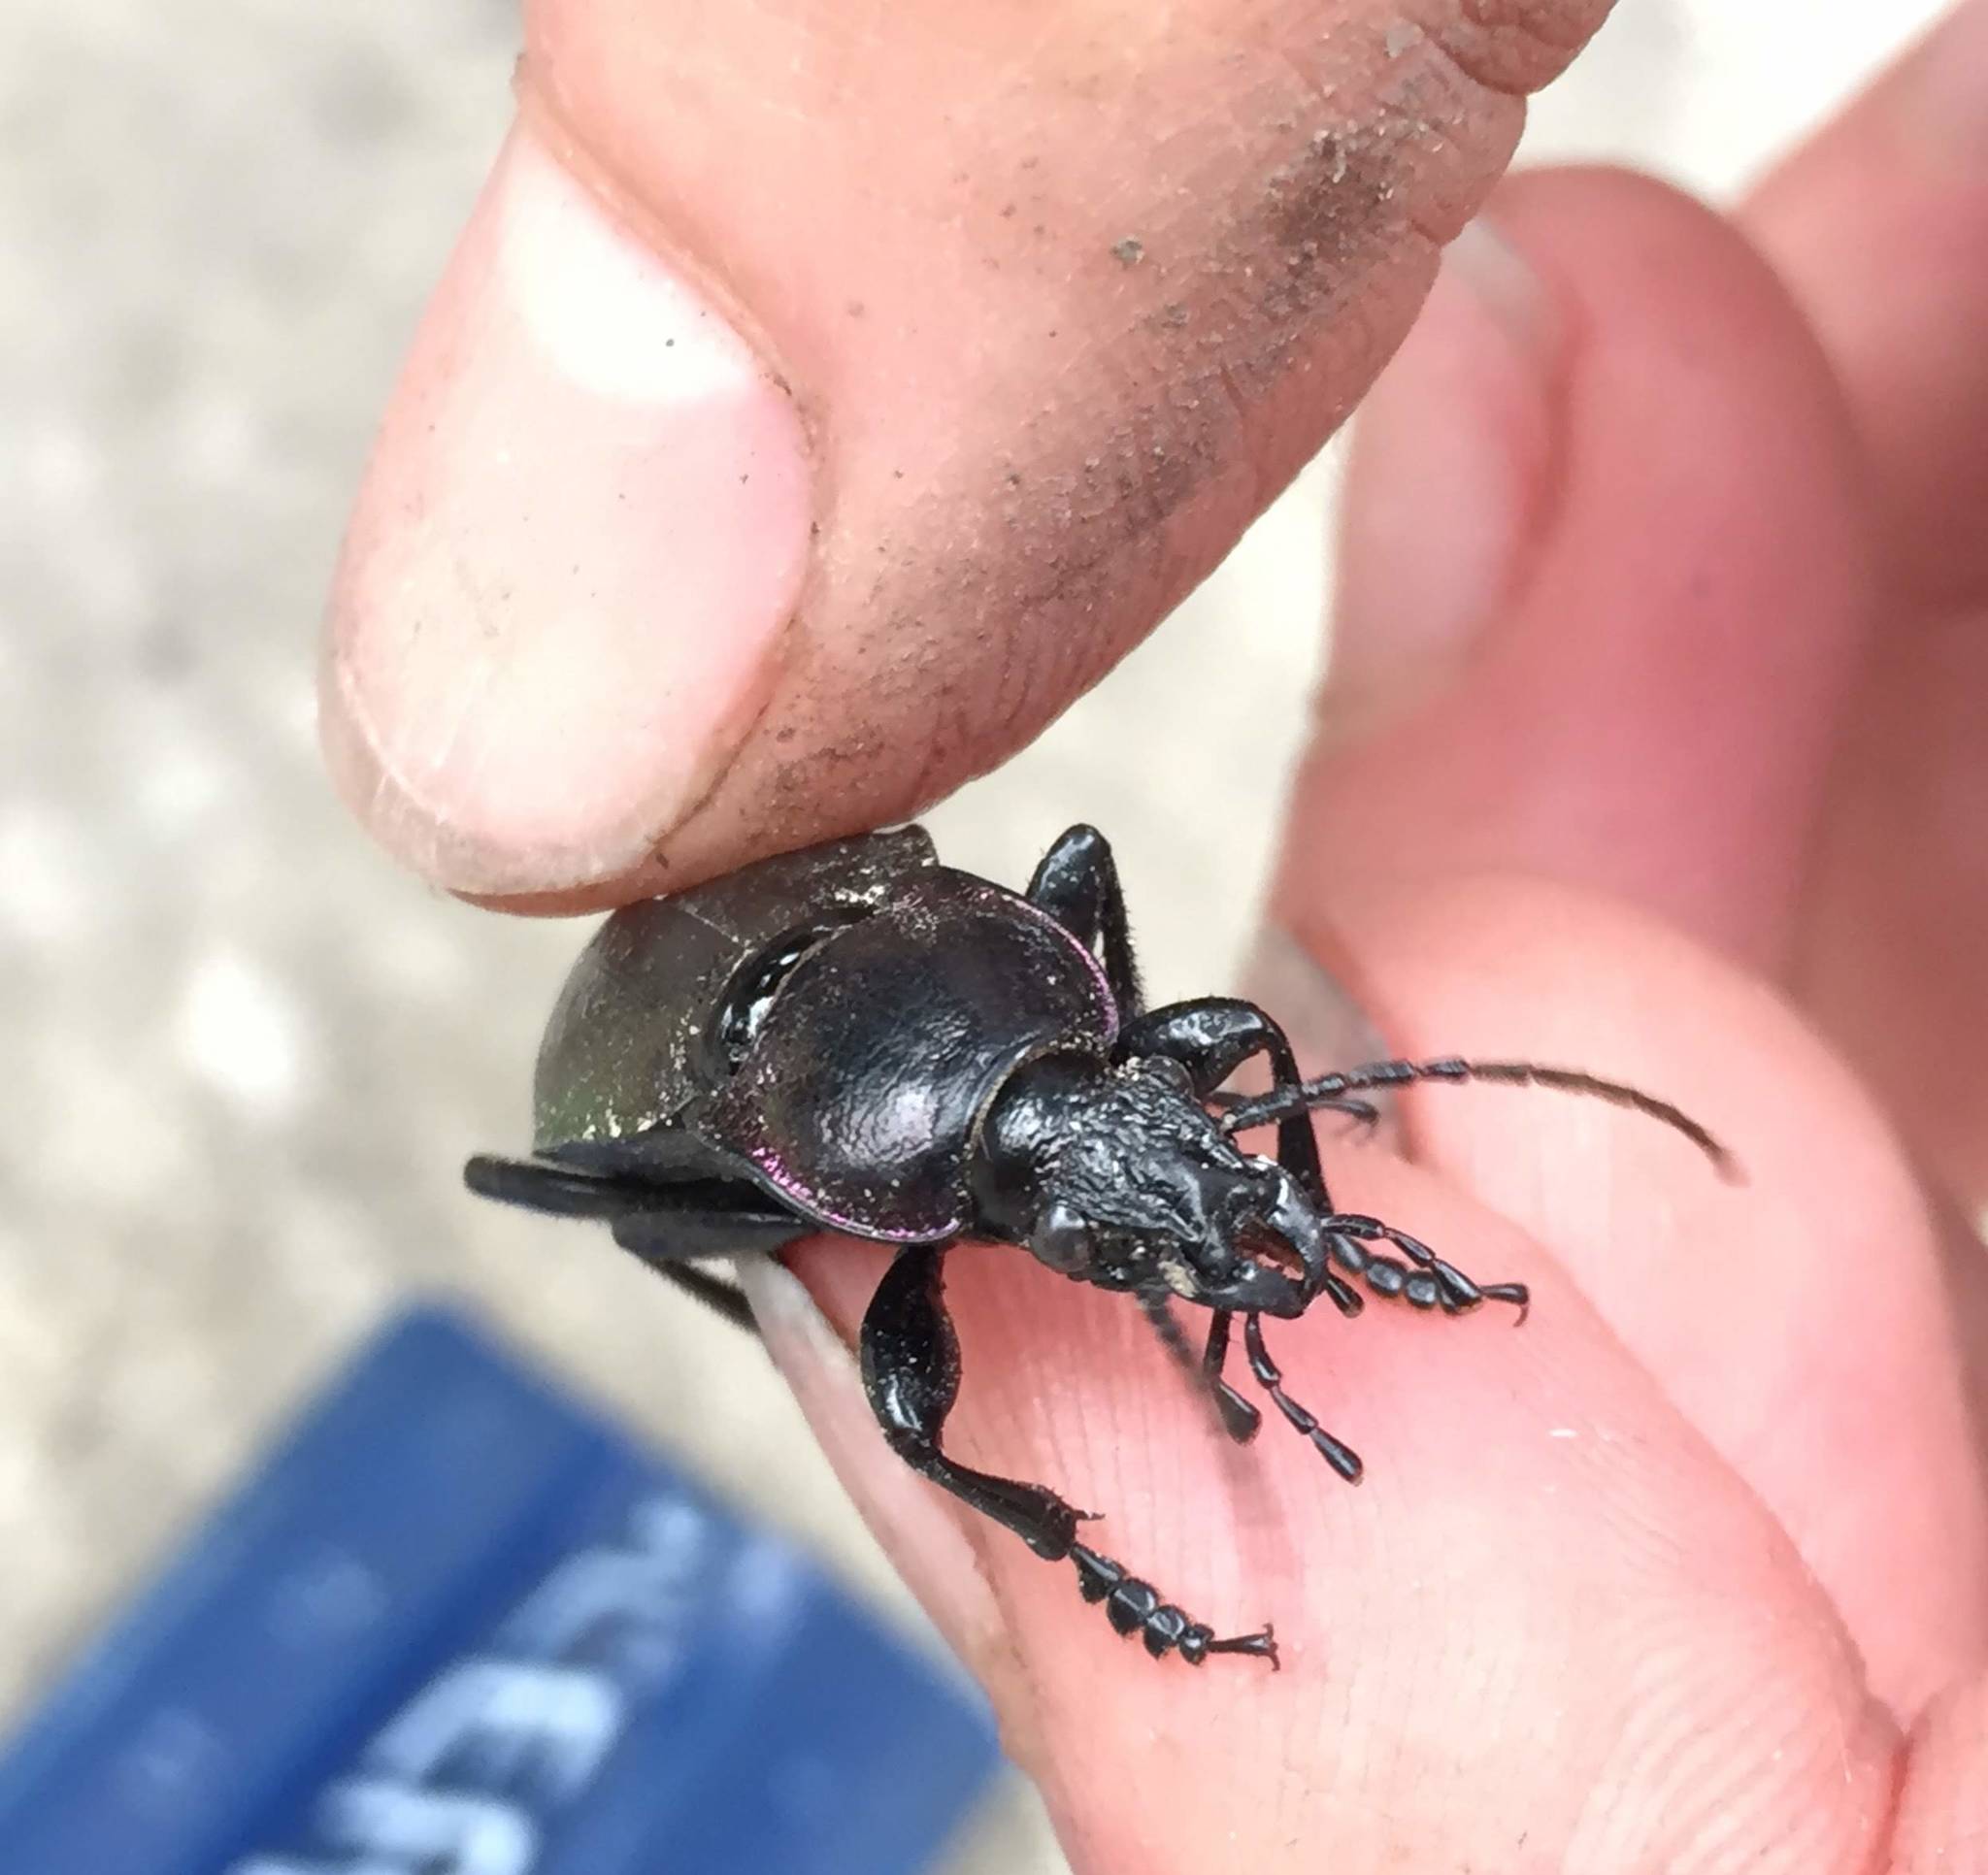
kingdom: Animalia
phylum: Arthropoda
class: Insecta
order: Coleoptera
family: Carabidae
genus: Carabus
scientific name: Carabus nemoralis
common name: European ground beetle
